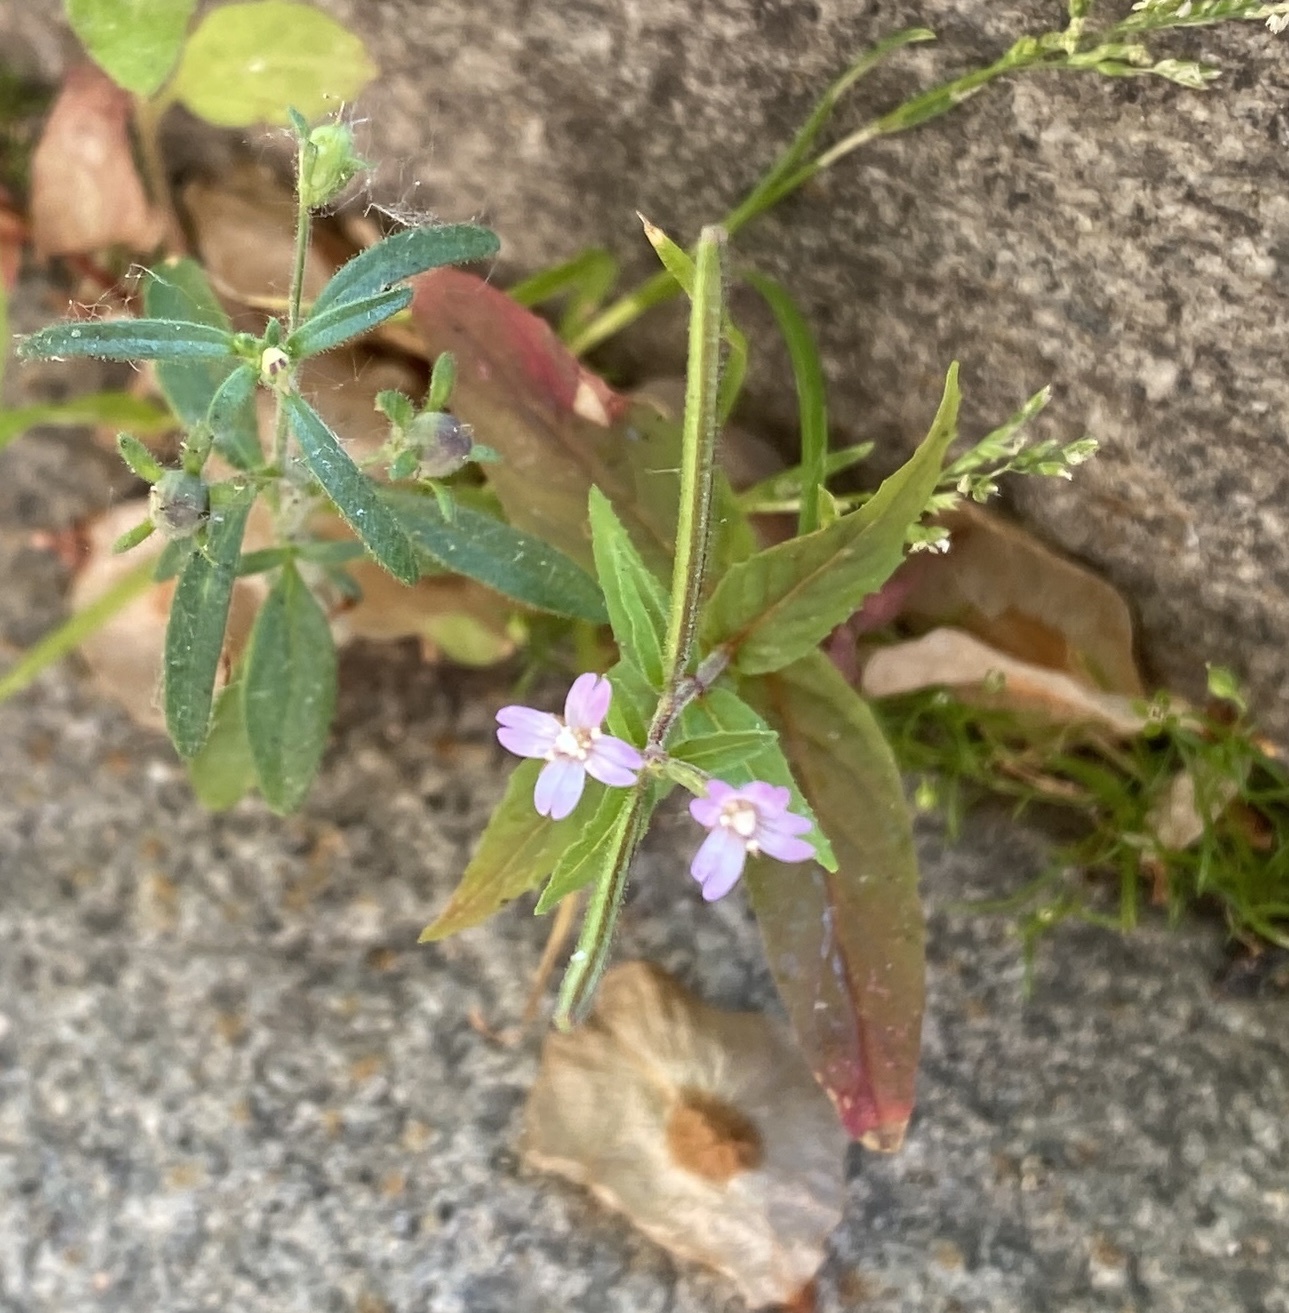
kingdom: Plantae
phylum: Tracheophyta
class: Magnoliopsida
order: Myrtales
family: Onagraceae
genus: Epilobium
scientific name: Epilobium montanum
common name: Broad-leaved willowherb
